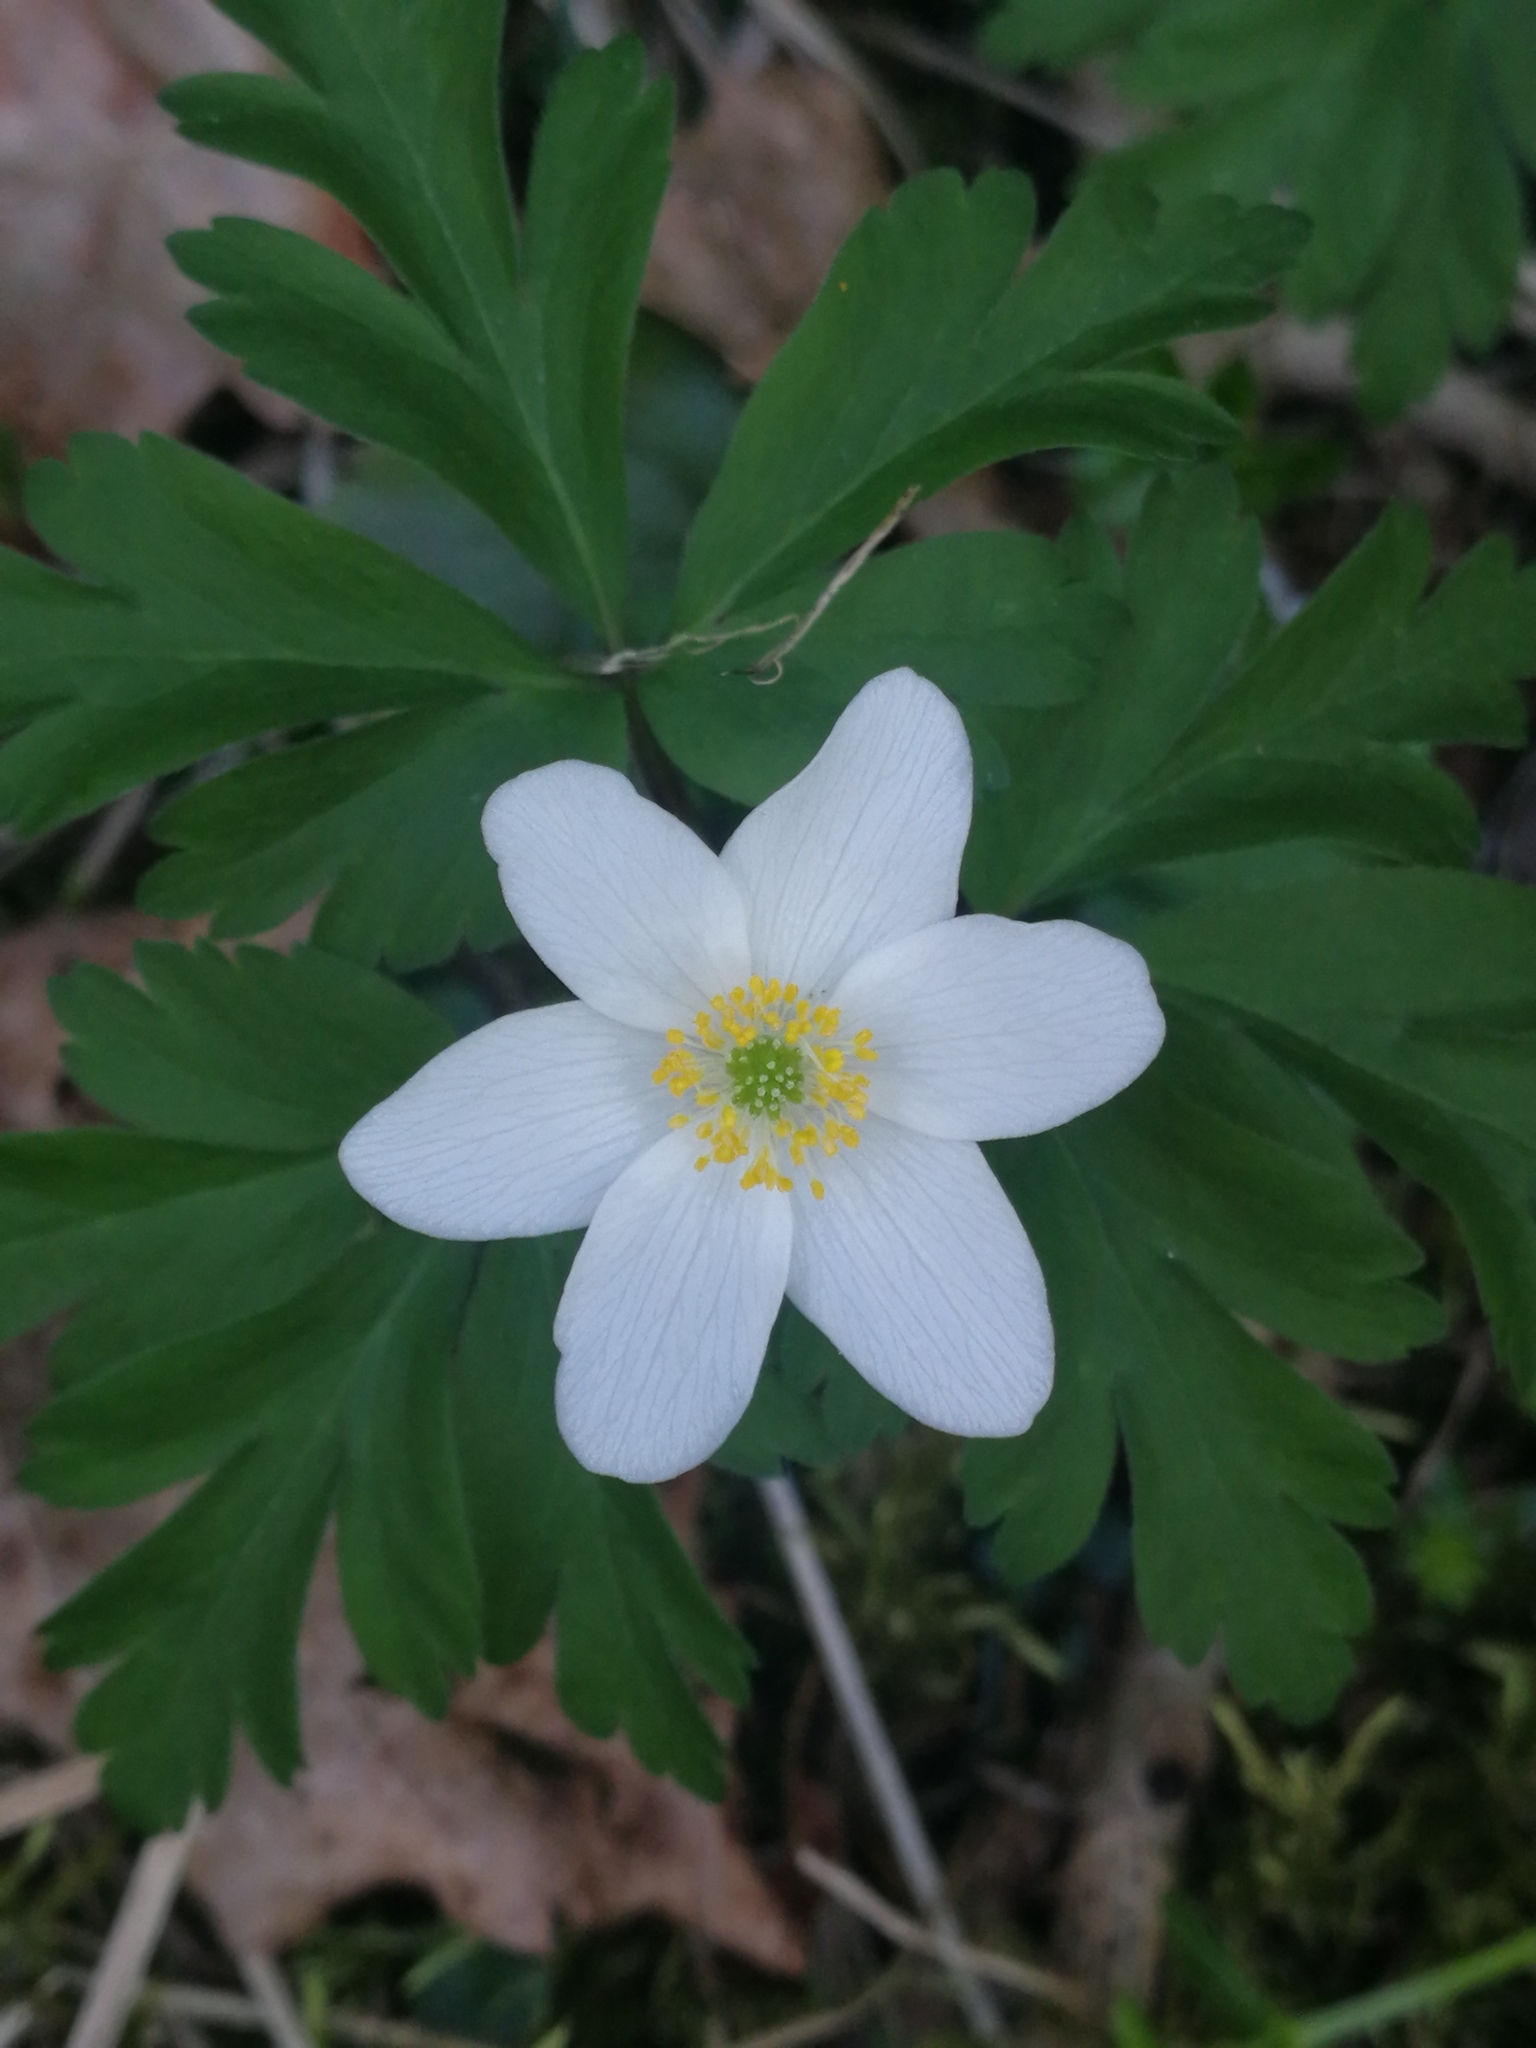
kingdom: Plantae
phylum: Tracheophyta
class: Magnoliopsida
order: Ranunculales
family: Ranunculaceae
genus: Anemone
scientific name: Anemone nemorosa
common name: Wood anemone
